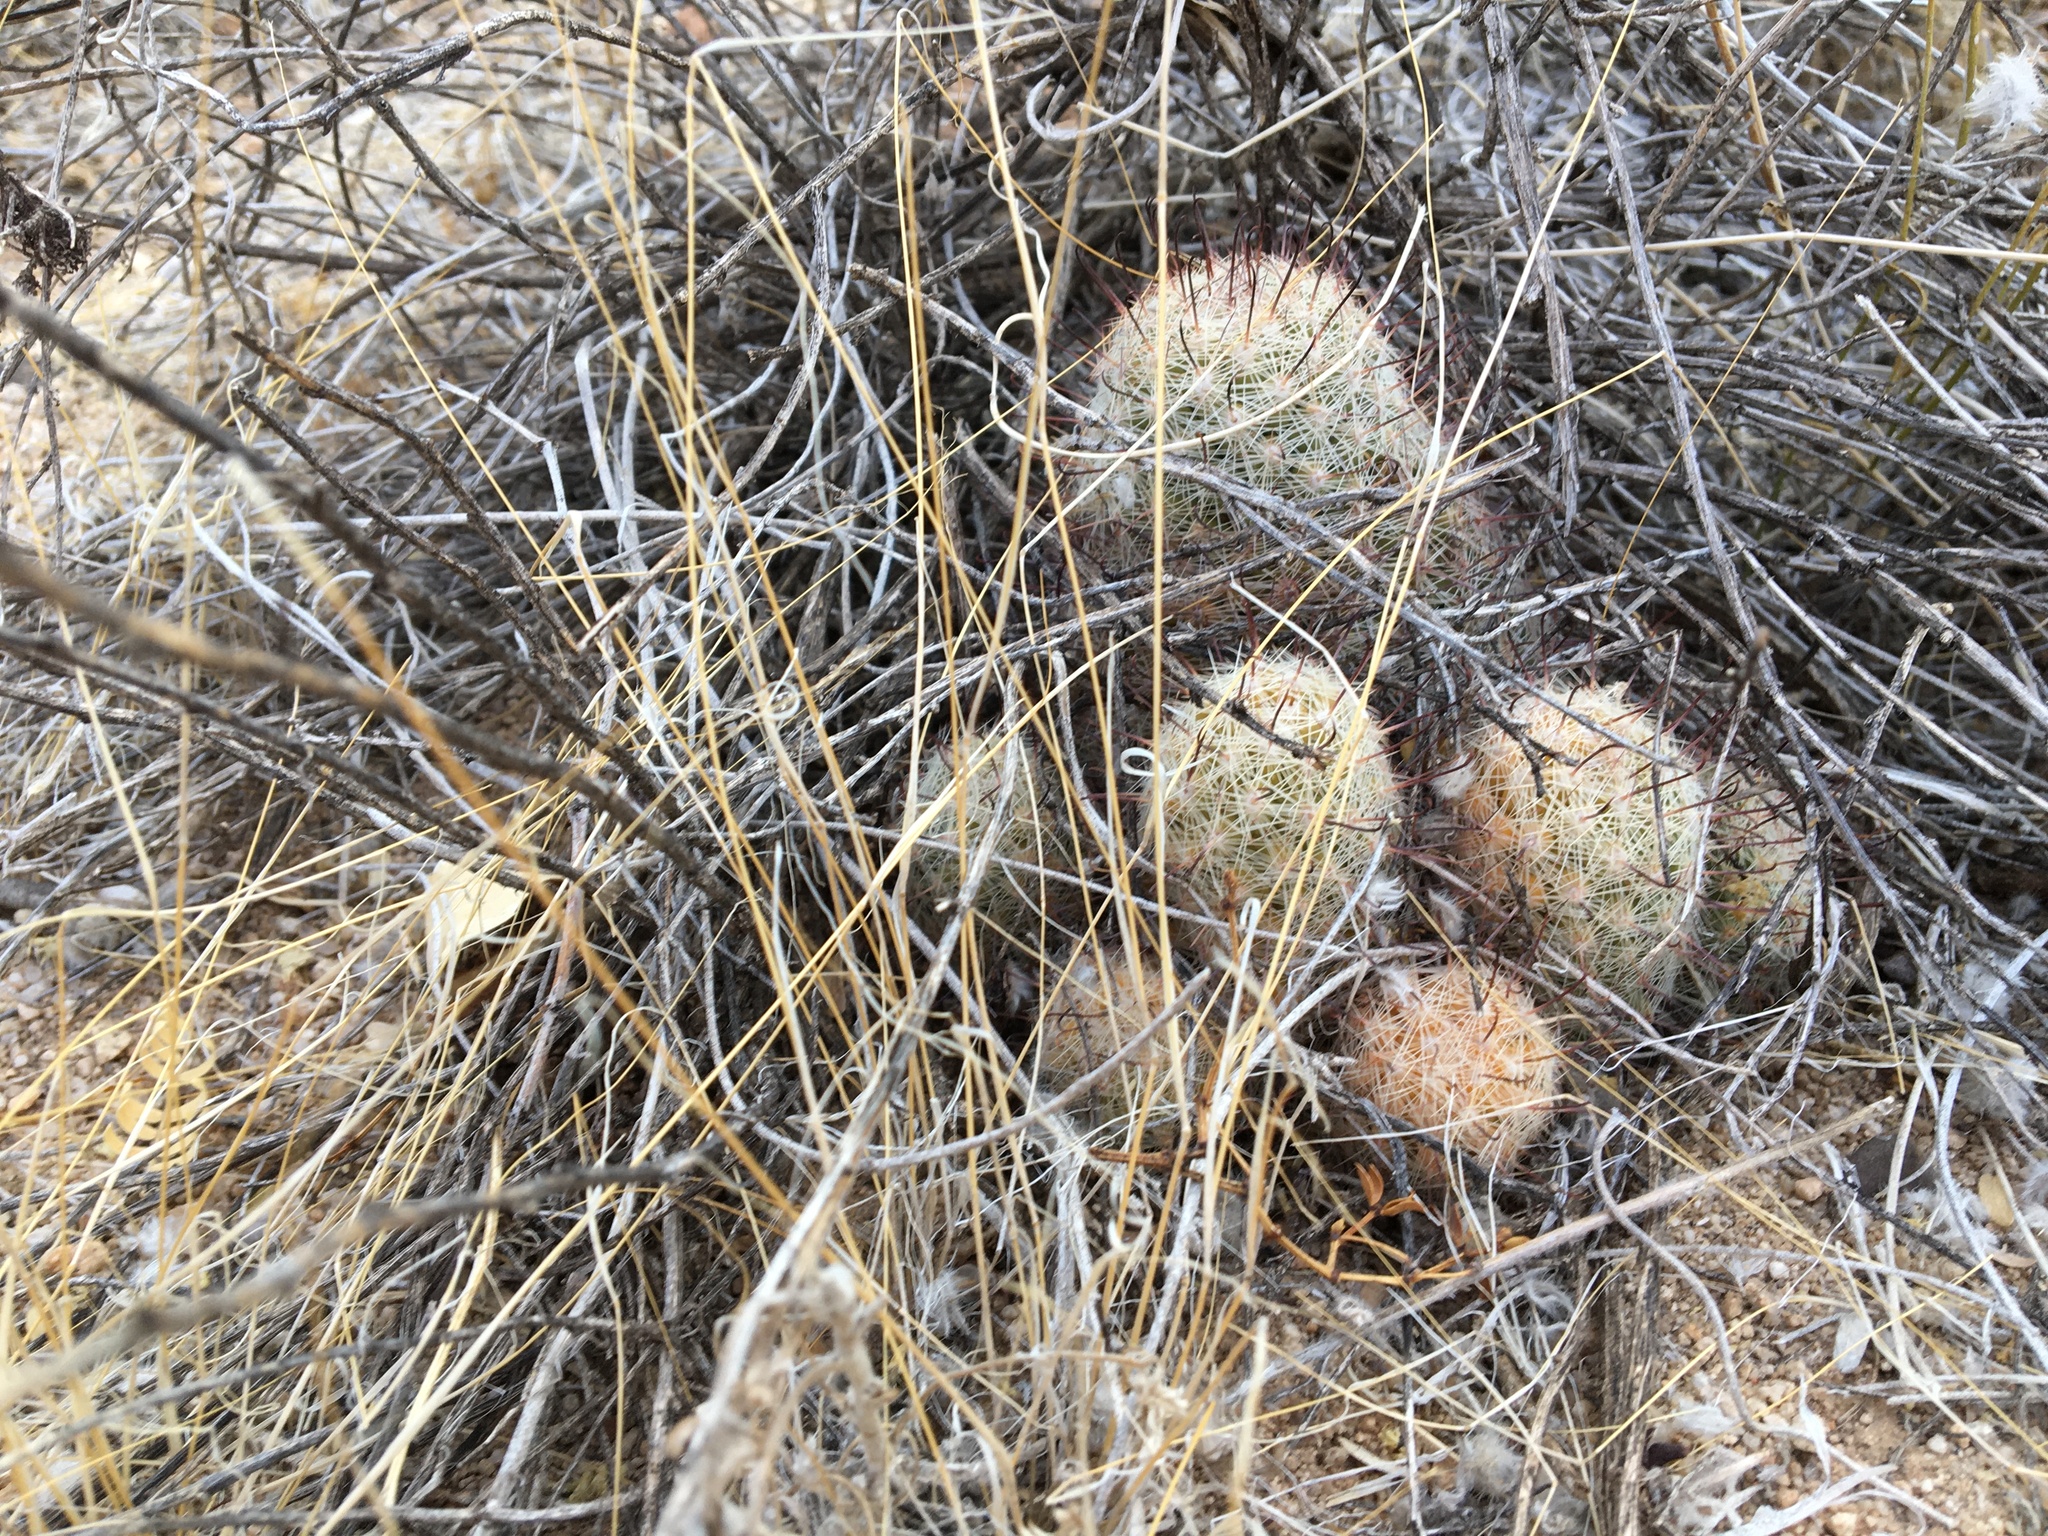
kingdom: Plantae
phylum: Tracheophyta
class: Magnoliopsida
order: Caryophyllales
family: Cactaceae
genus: Cochemiea
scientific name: Cochemiea grahamii
